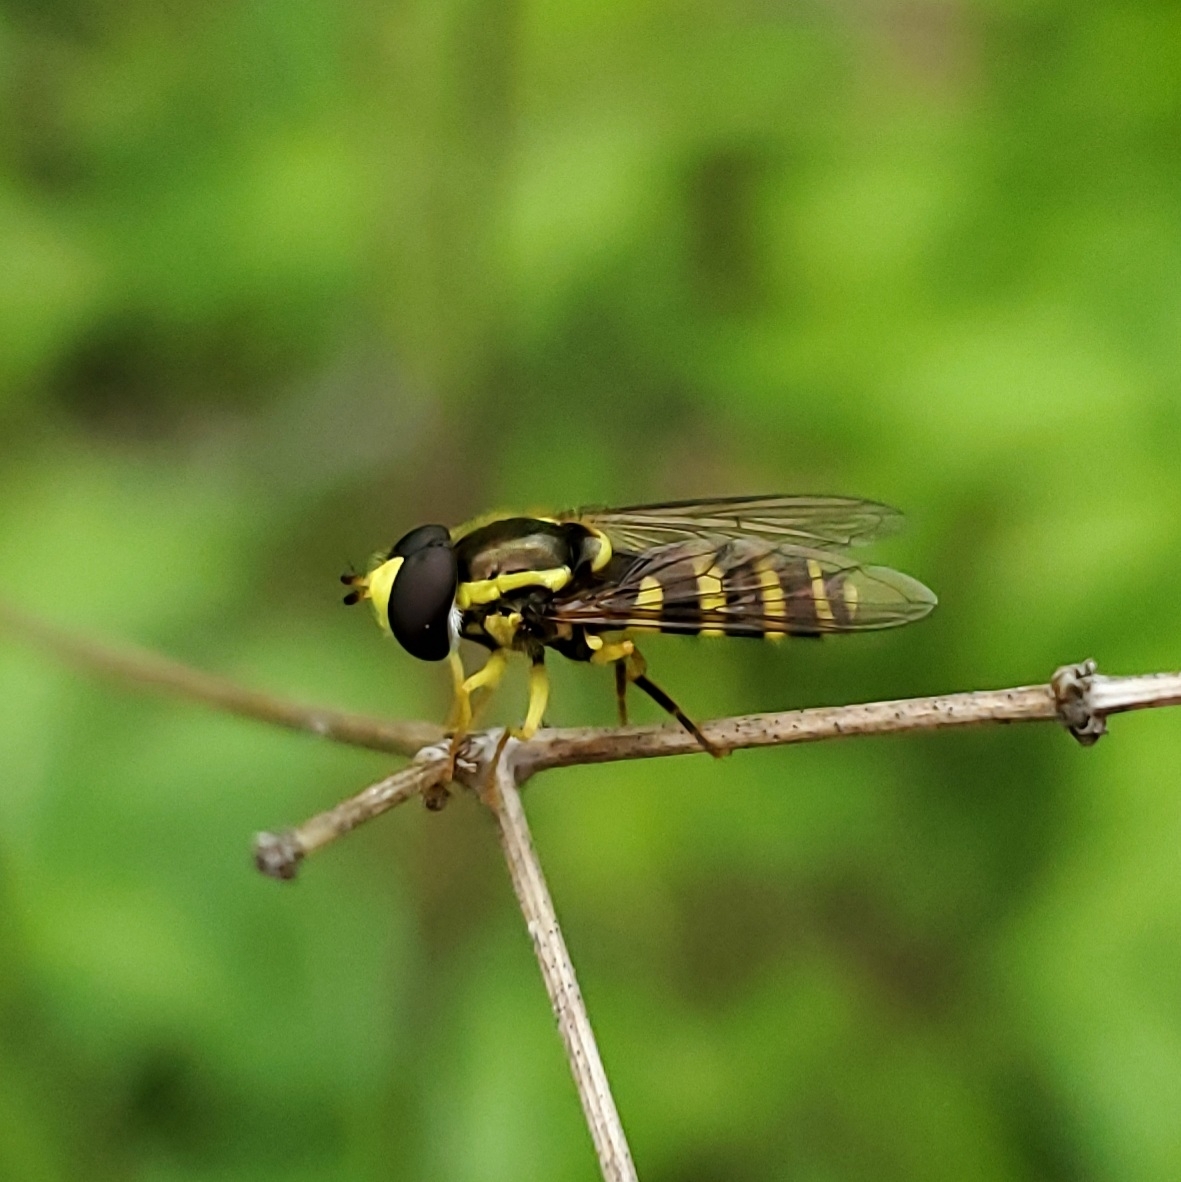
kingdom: Animalia
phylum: Arthropoda
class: Insecta
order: Diptera
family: Syrphidae
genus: Philhelius
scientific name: Philhelius flavipes
